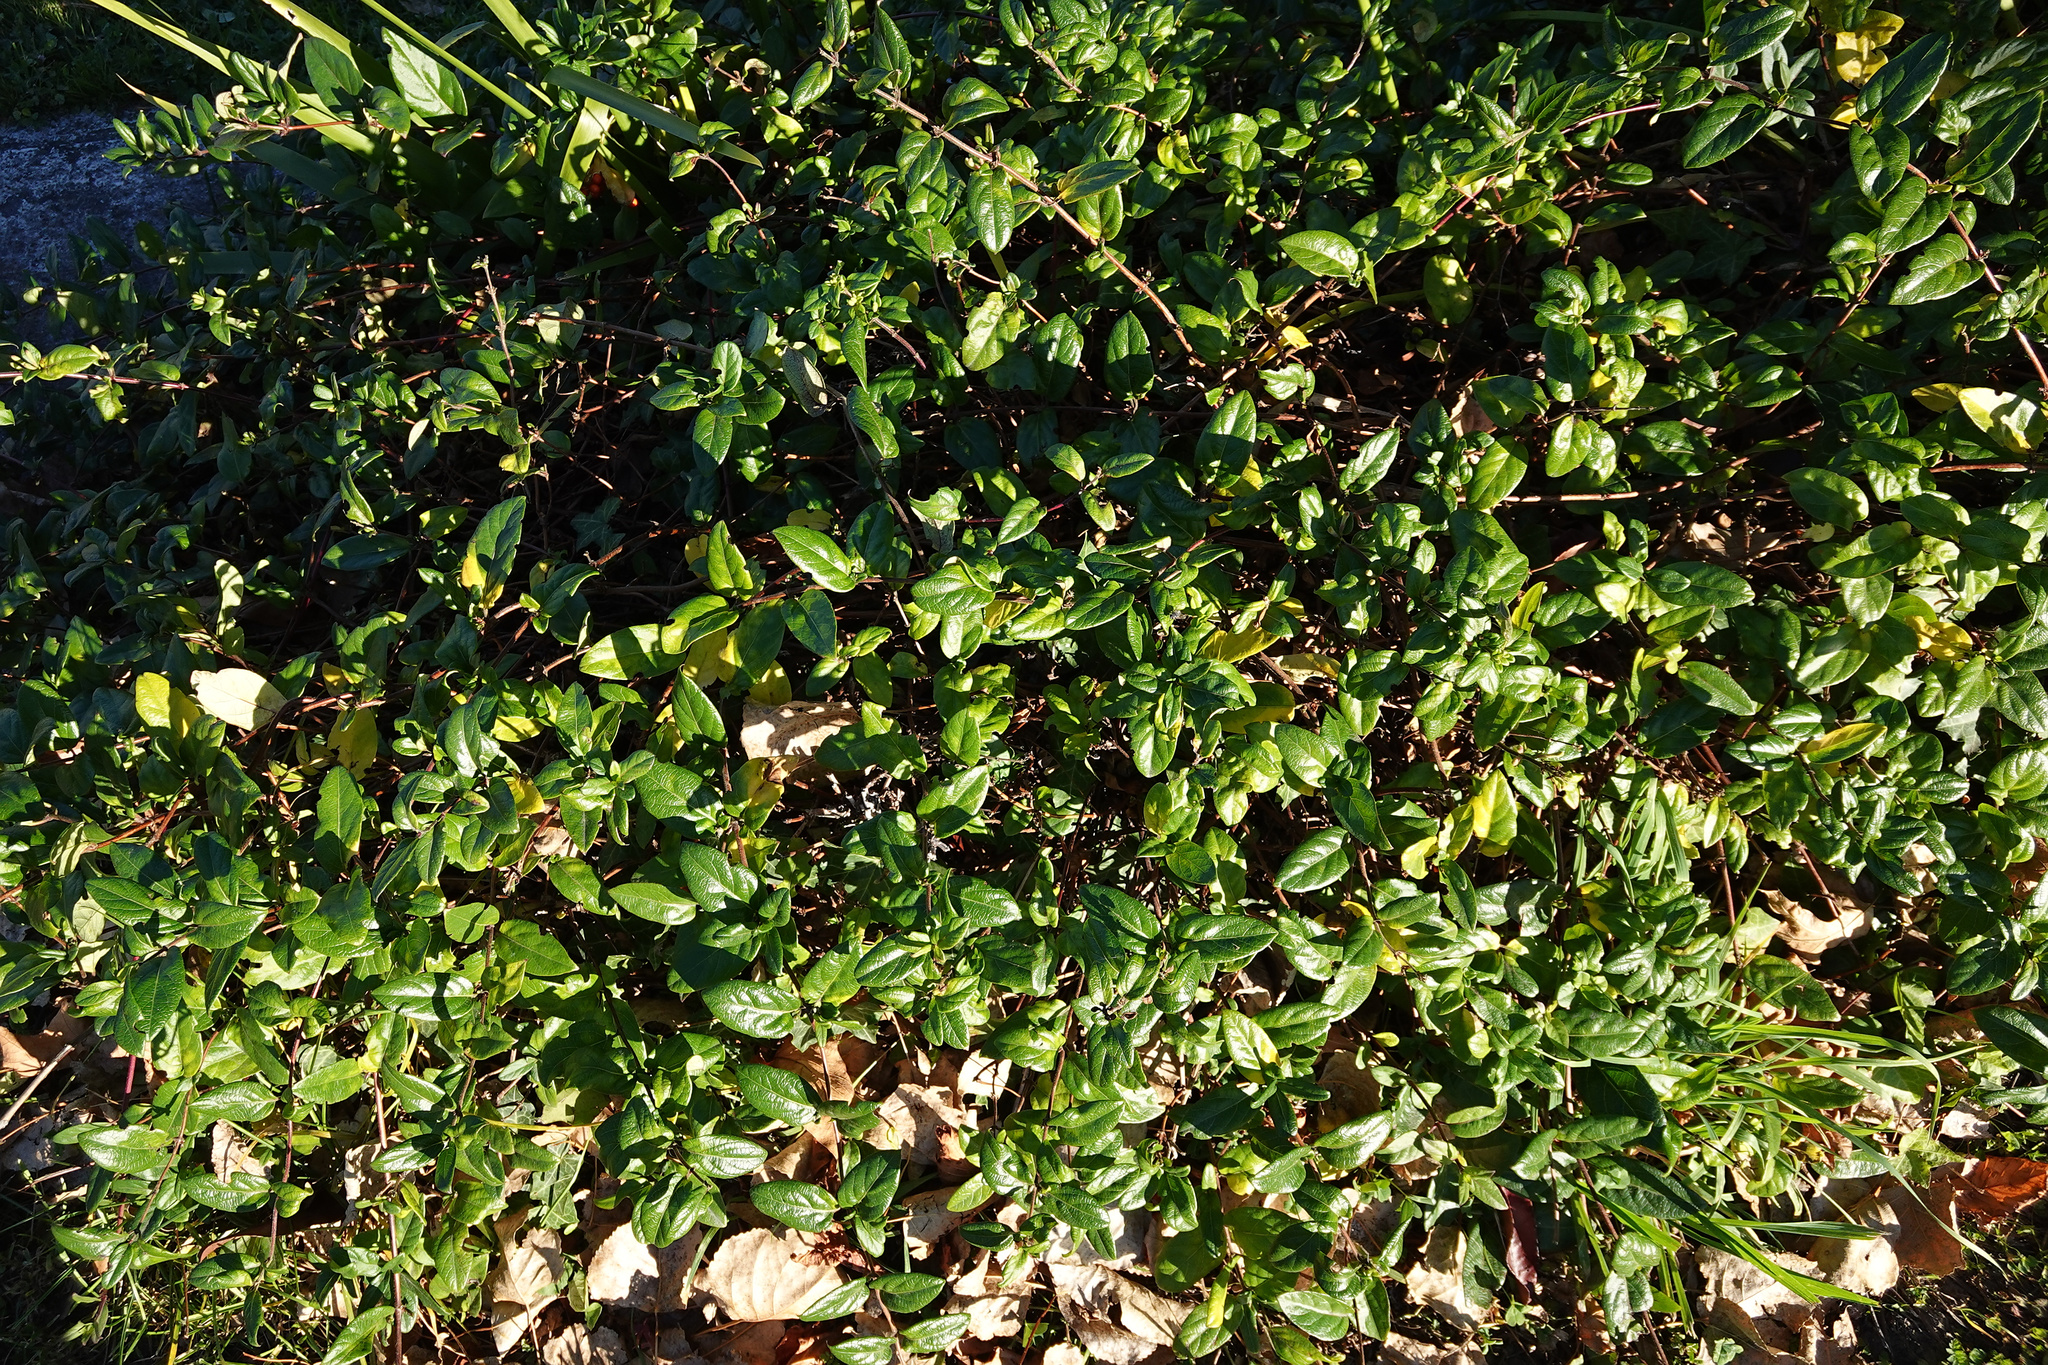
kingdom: Plantae
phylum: Tracheophyta
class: Magnoliopsida
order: Dipsacales
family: Caprifoliaceae
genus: Lonicera
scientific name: Lonicera japonica
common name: Japanese honeysuckle
